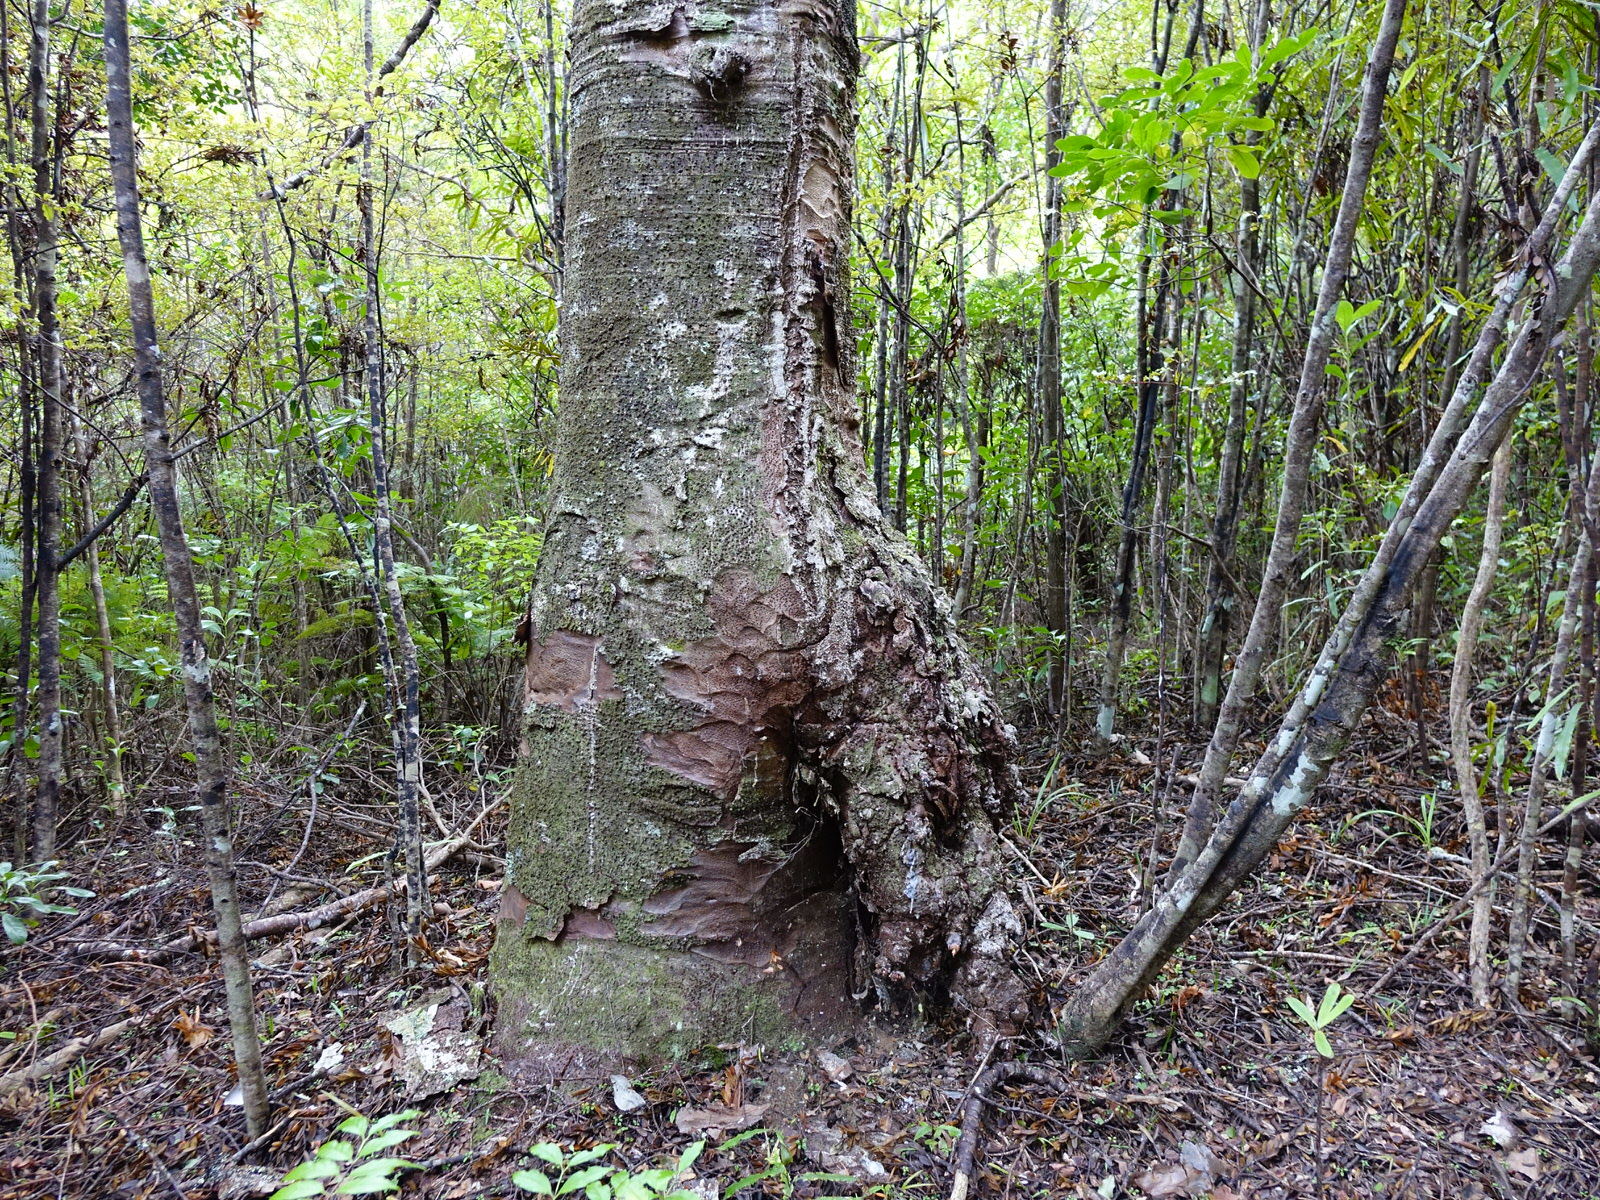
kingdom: Plantae
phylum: Tracheophyta
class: Pinopsida
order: Pinales
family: Araucariaceae
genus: Agathis
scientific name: Agathis australis
